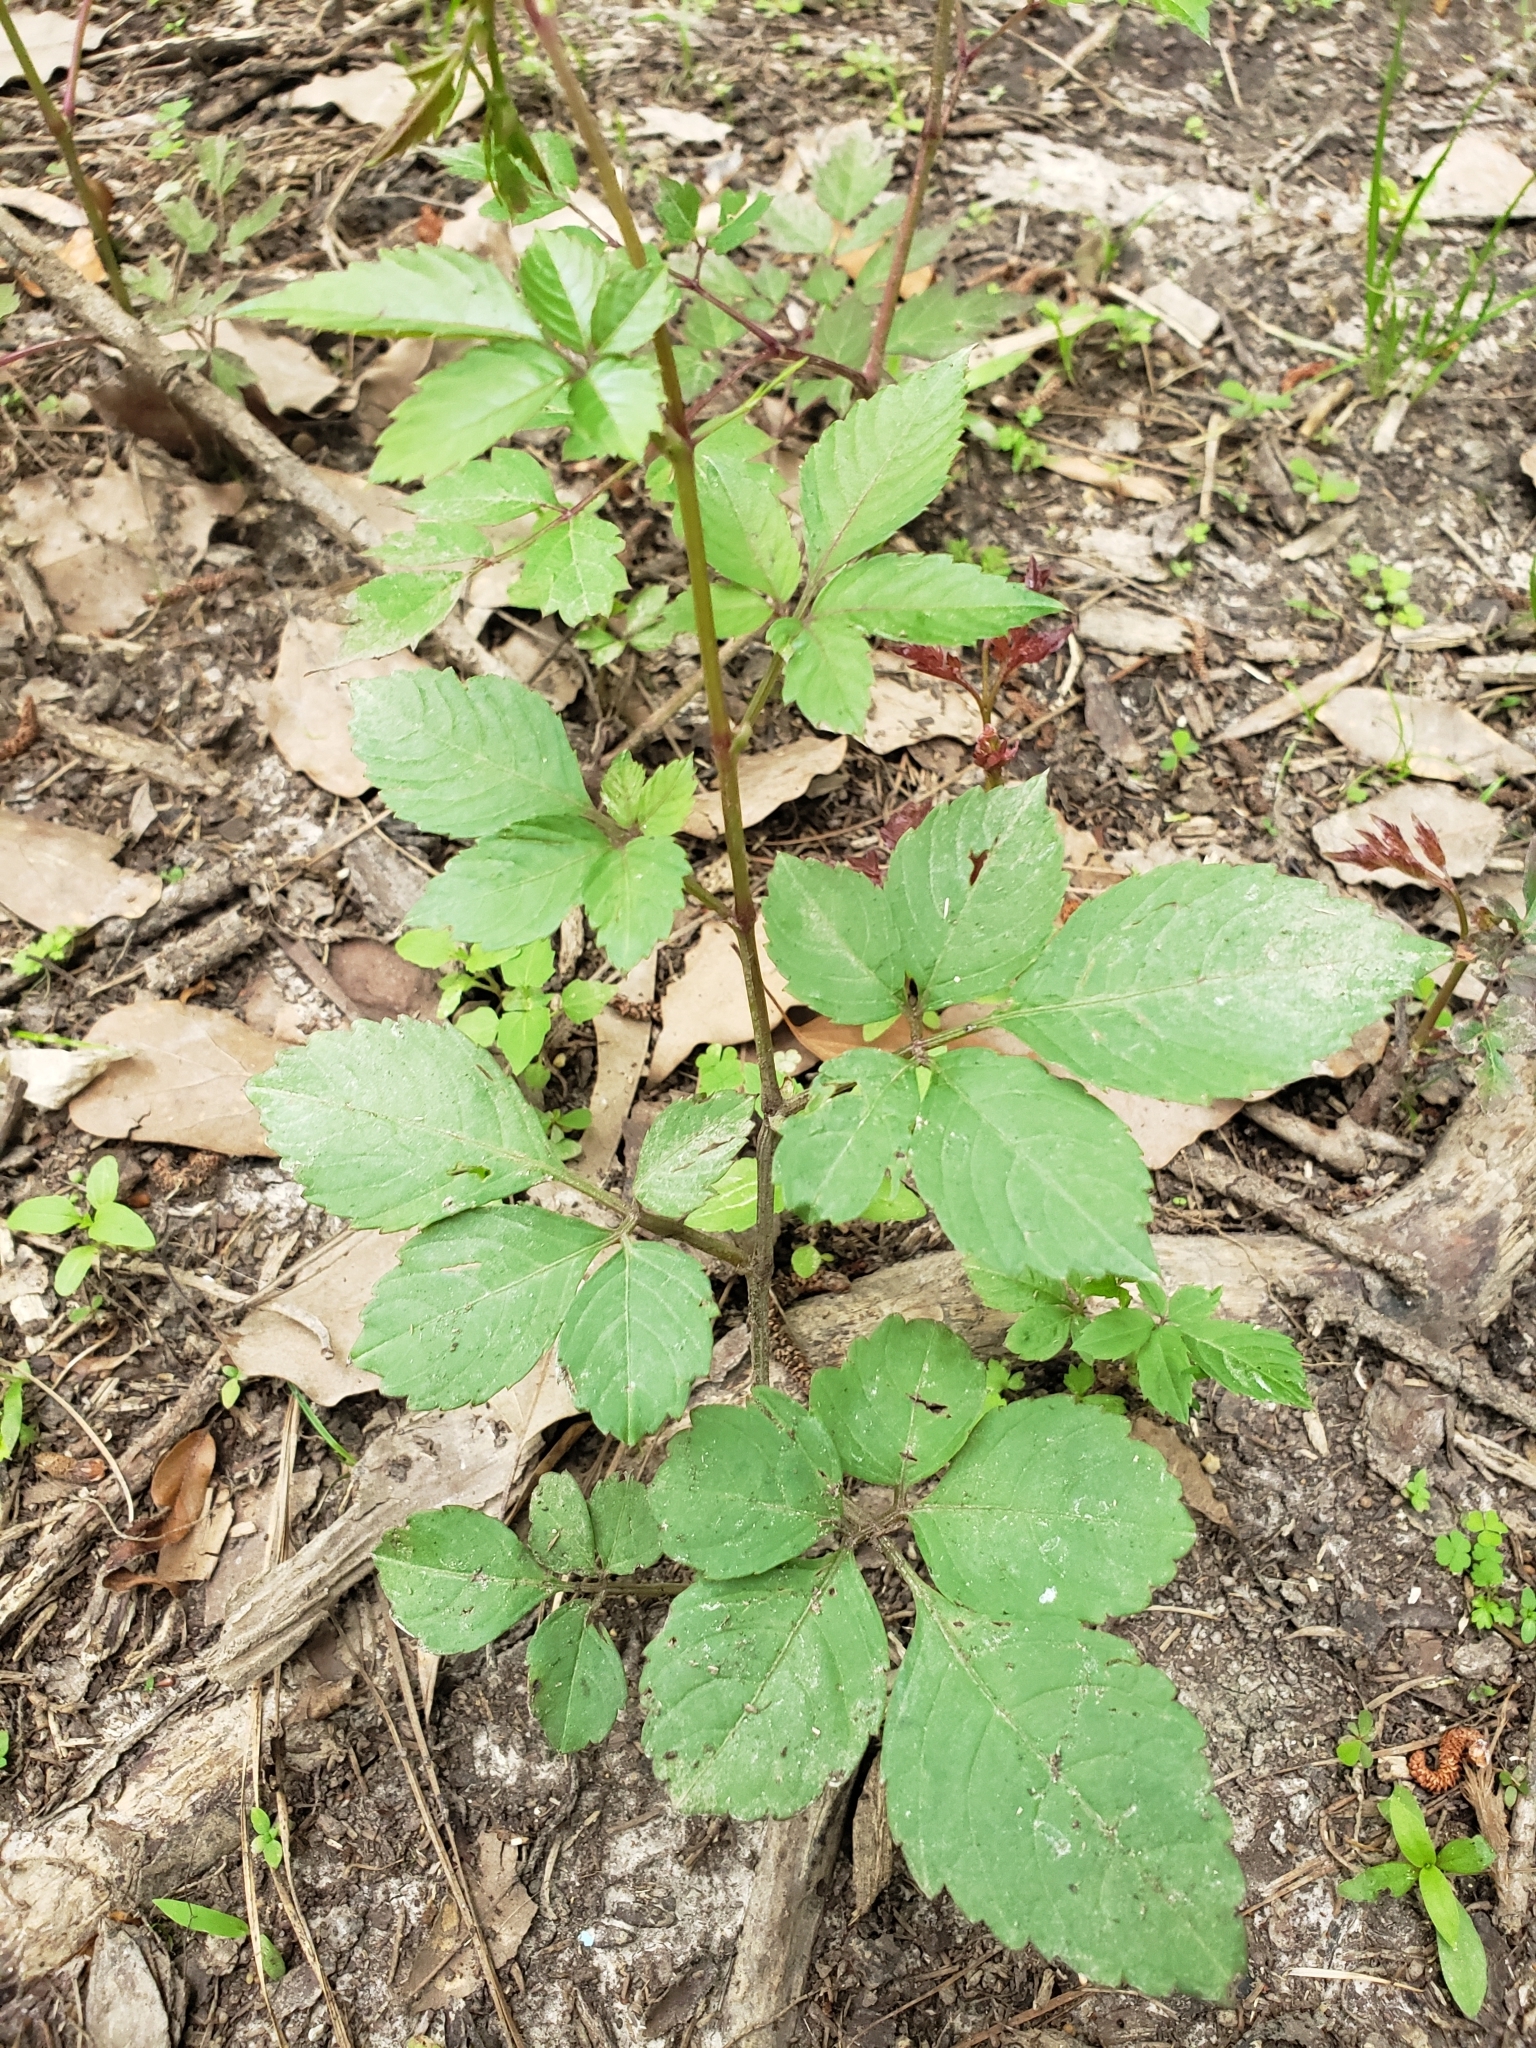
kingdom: Plantae
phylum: Tracheophyta
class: Magnoliopsida
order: Vitales
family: Vitaceae
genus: Causonis
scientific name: Causonis japonica
